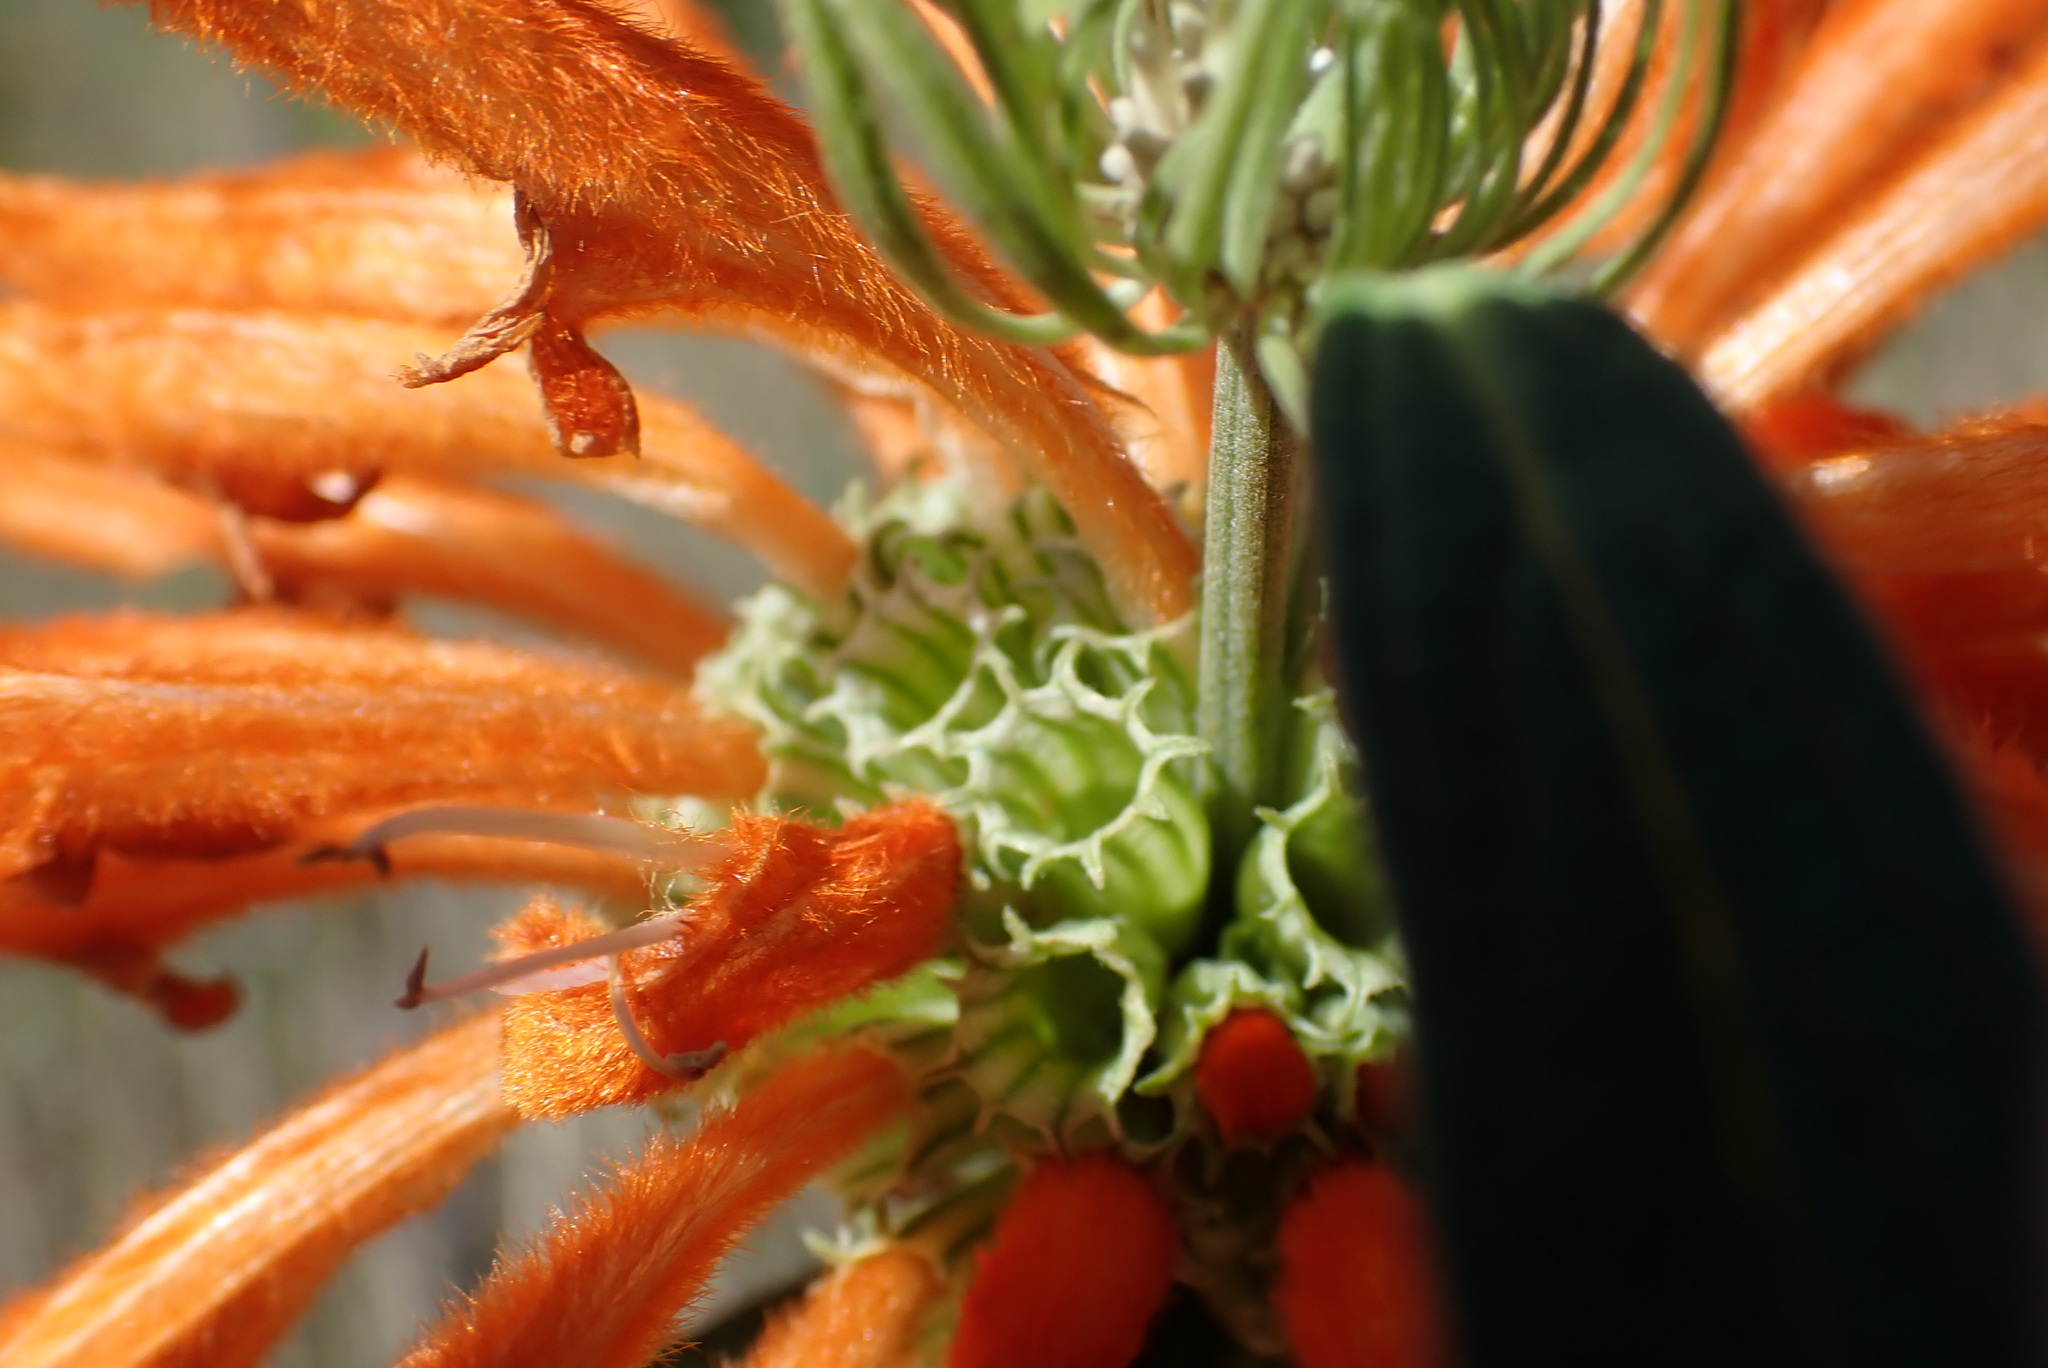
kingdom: Plantae
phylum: Tracheophyta
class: Magnoliopsida
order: Lamiales
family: Lamiaceae
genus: Leonotis
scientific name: Leonotis leonurus
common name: Lion's ear
